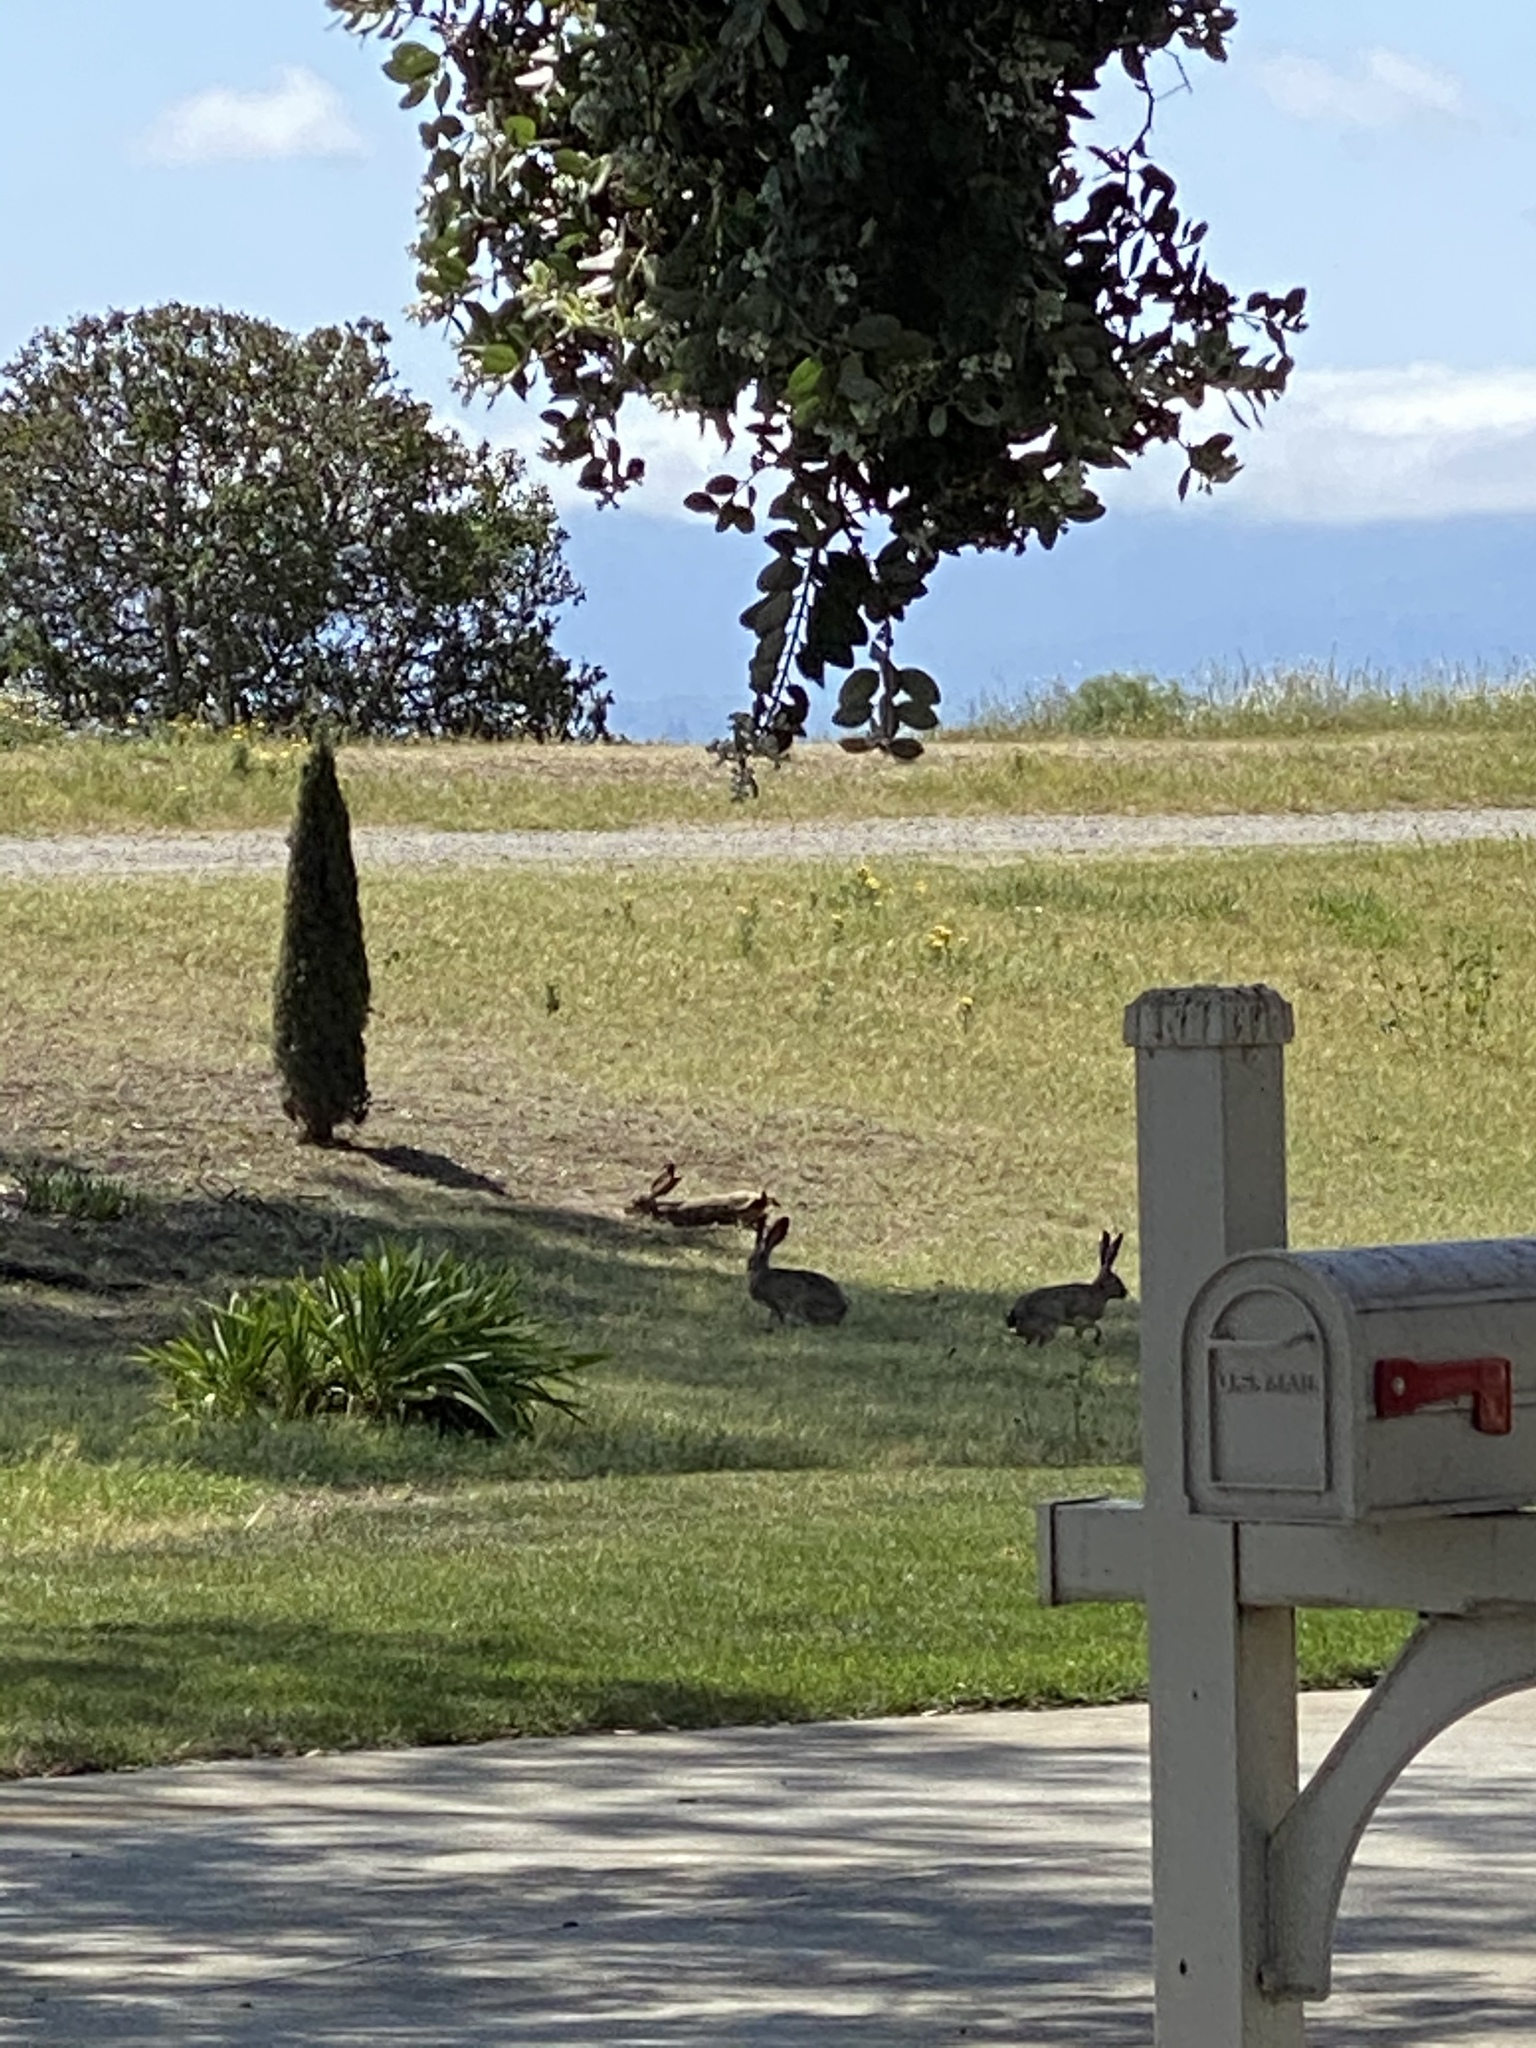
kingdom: Animalia
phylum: Chordata
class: Mammalia
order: Lagomorpha
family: Leporidae
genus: Lepus
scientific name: Lepus californicus
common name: Black-tailed jackrabbit
